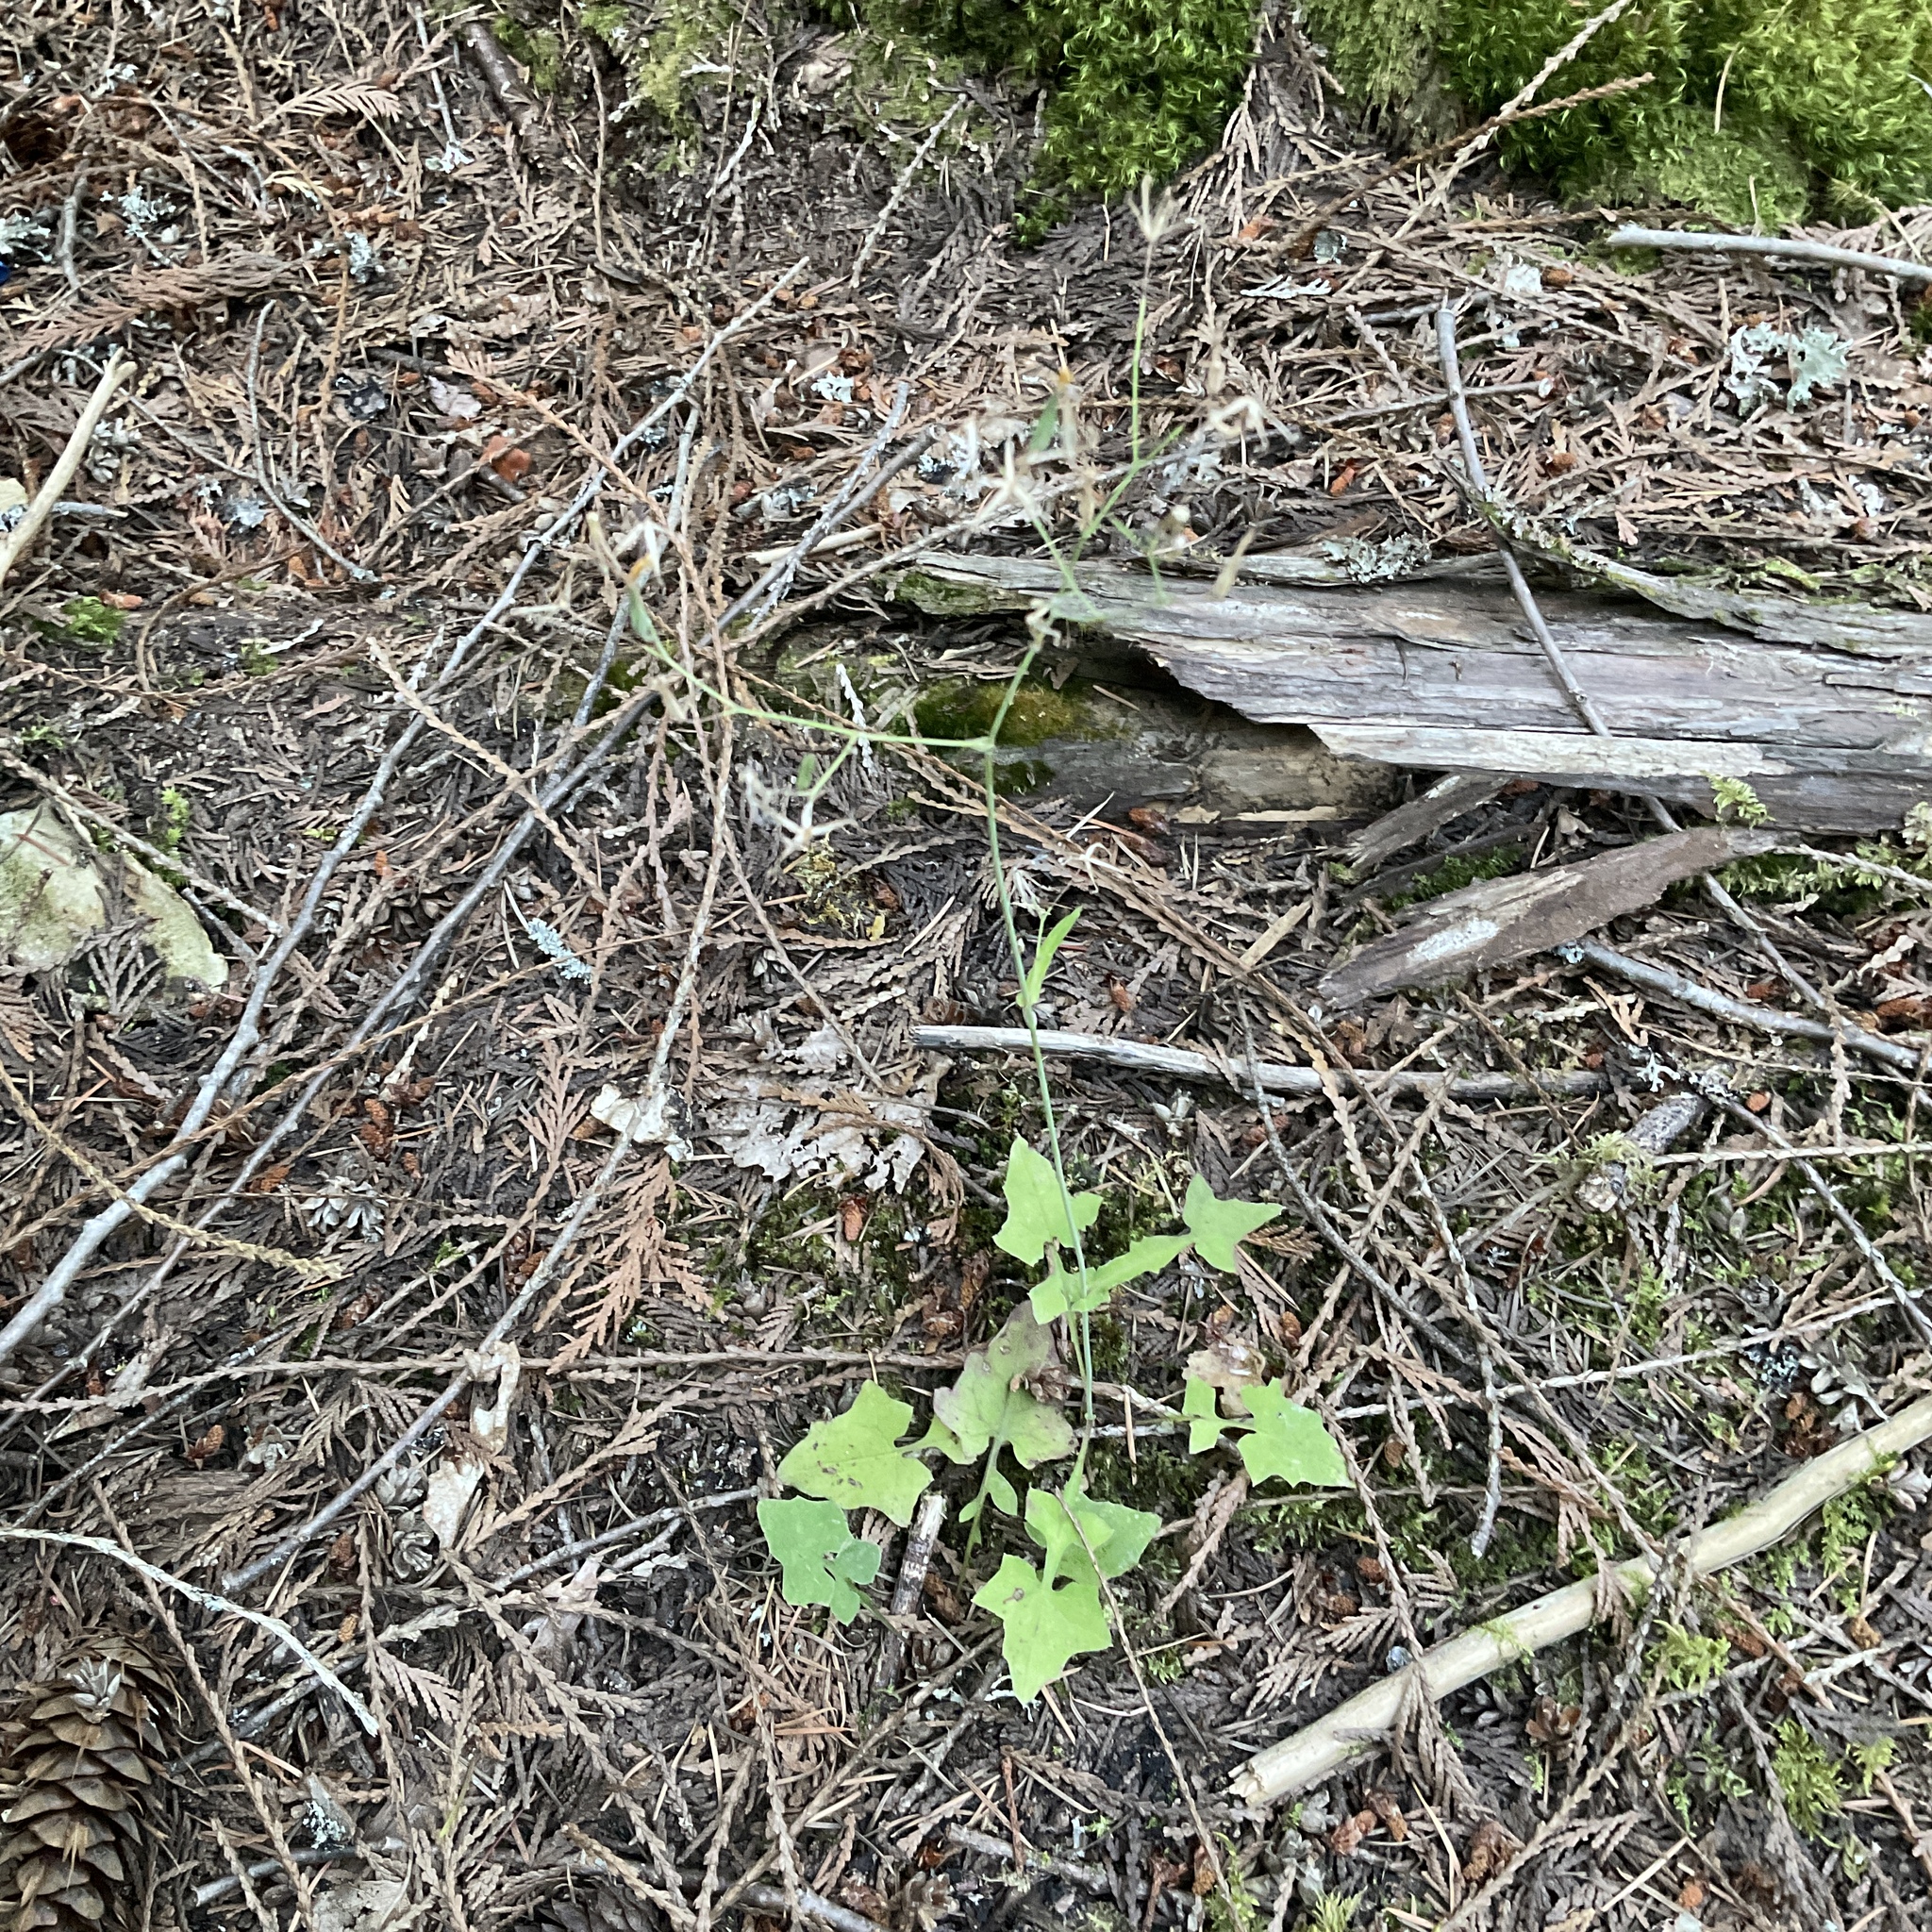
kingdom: Plantae
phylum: Tracheophyta
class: Magnoliopsida
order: Asterales
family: Asteraceae
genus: Mycelis
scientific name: Mycelis muralis
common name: Wall lettuce
